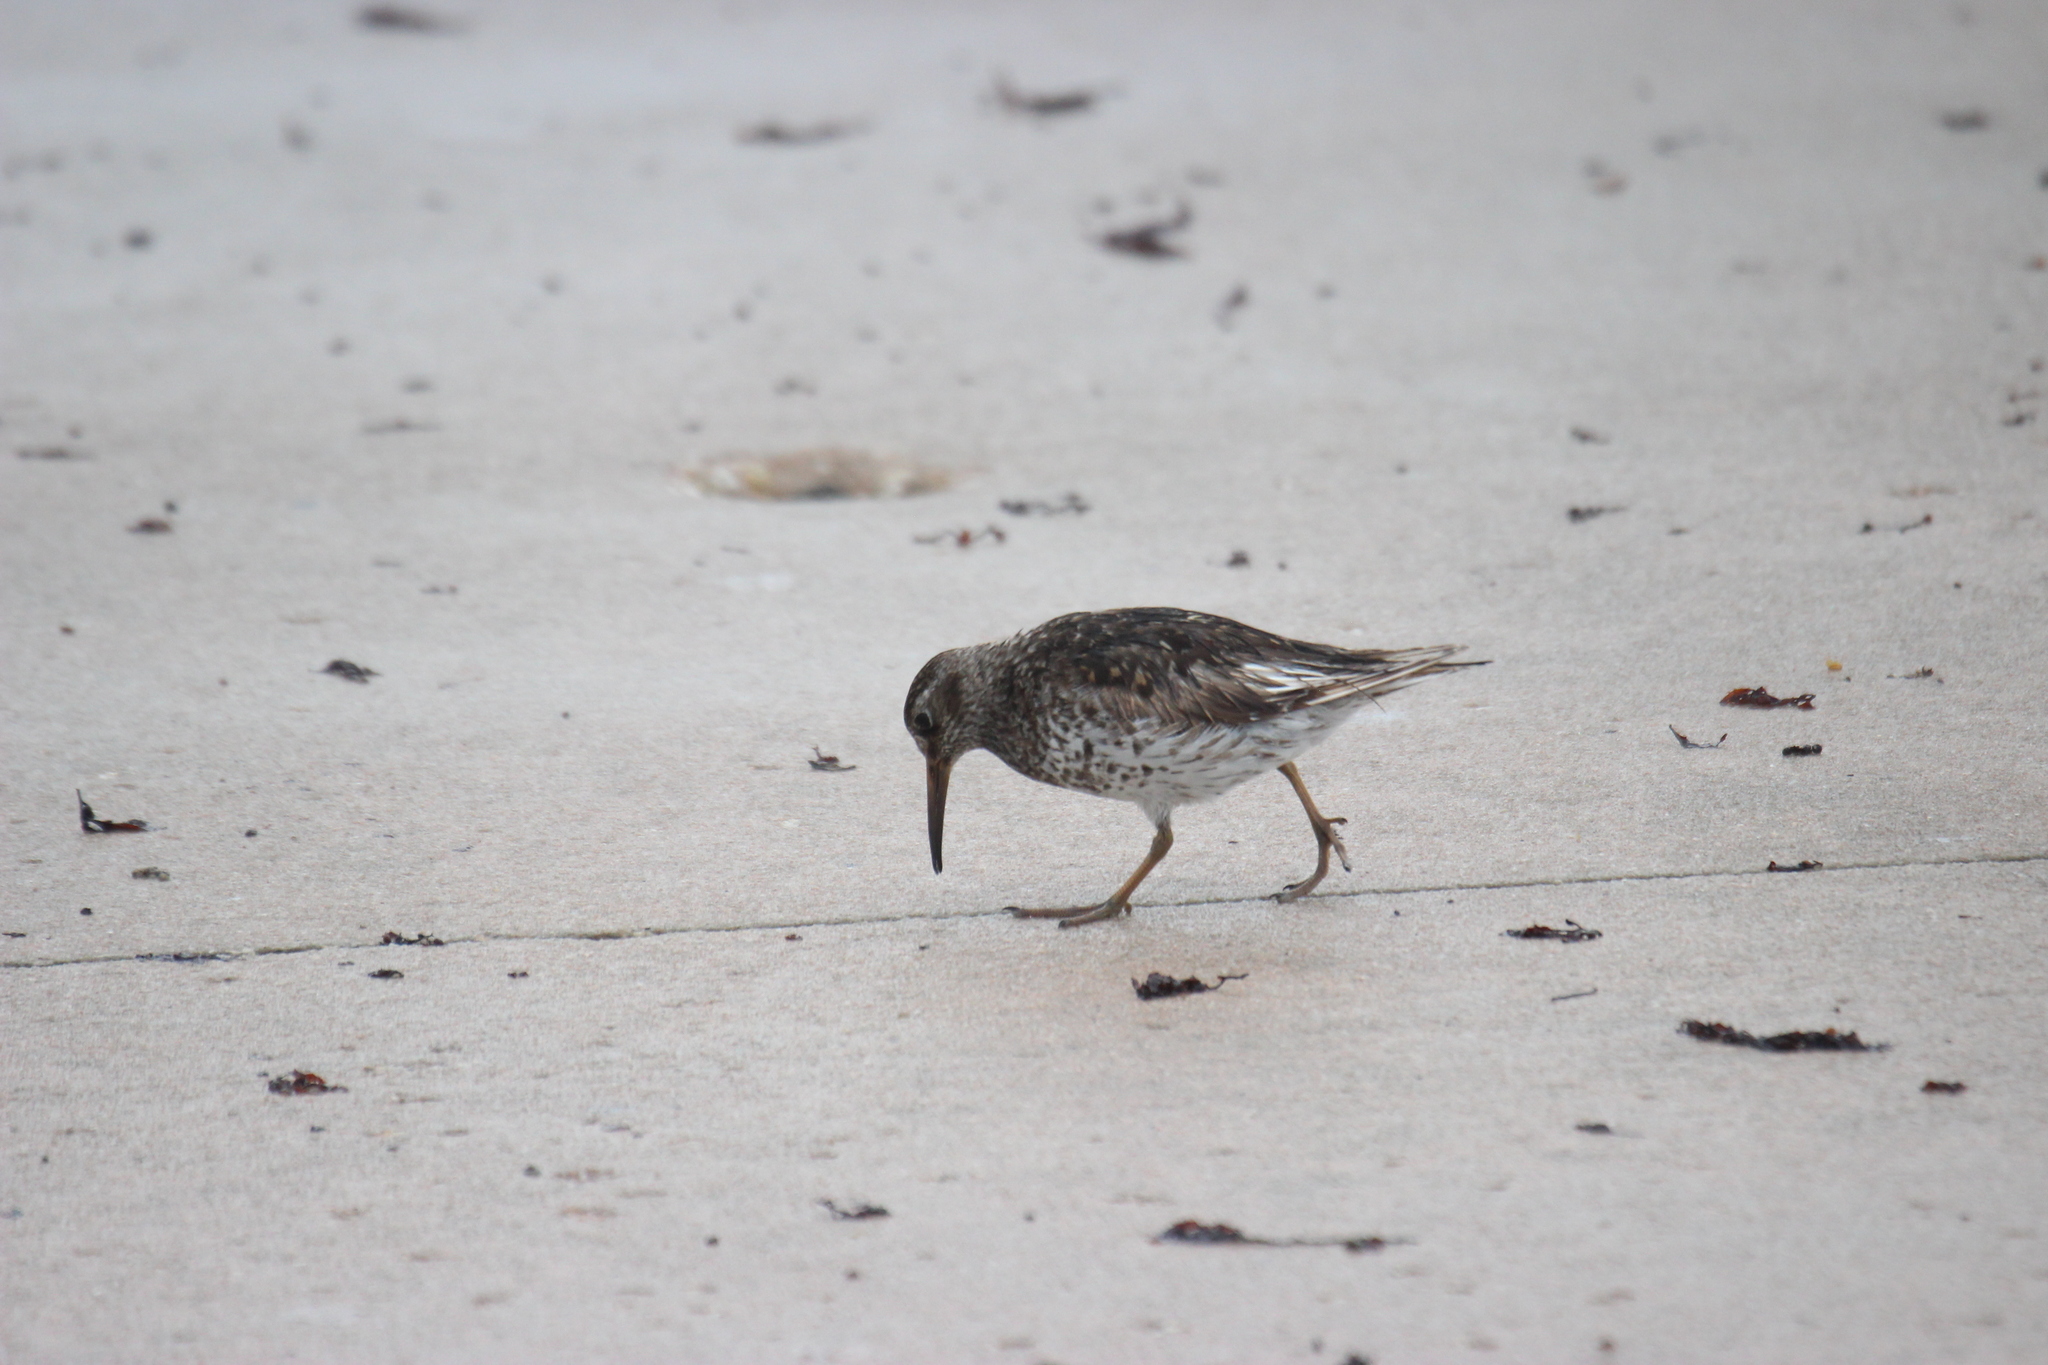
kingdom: Animalia
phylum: Chordata
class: Aves
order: Charadriiformes
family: Scolopacidae
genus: Calidris
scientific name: Calidris maritima
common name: Purple sandpiper
